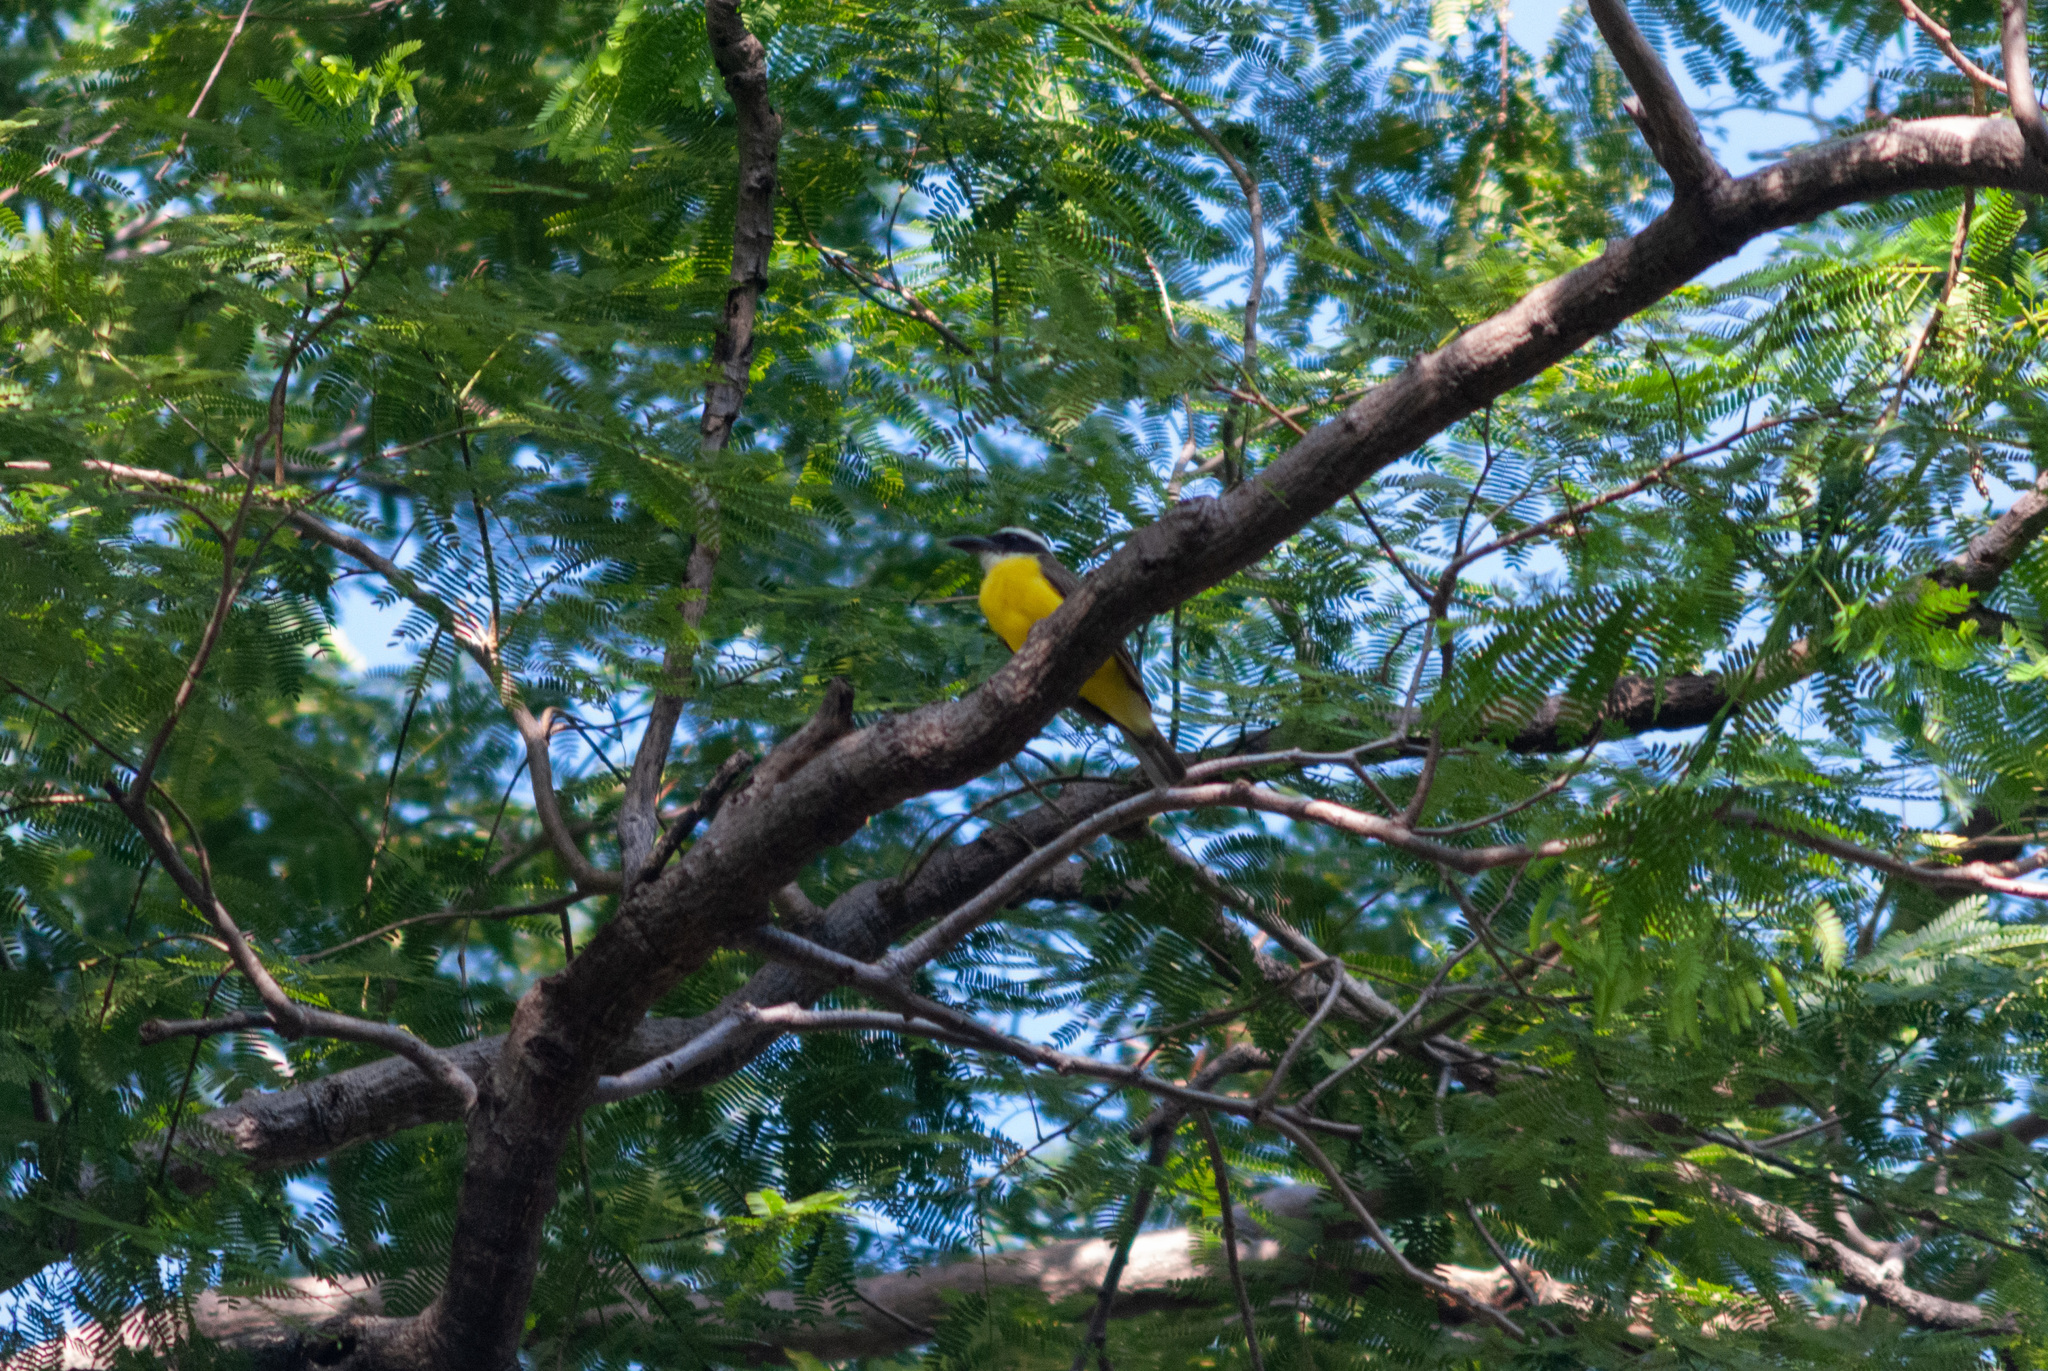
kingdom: Animalia
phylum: Chordata
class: Aves
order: Passeriformes
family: Tyrannidae
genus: Megarynchus
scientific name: Megarynchus pitangua
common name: Boat-billed flycatcher
